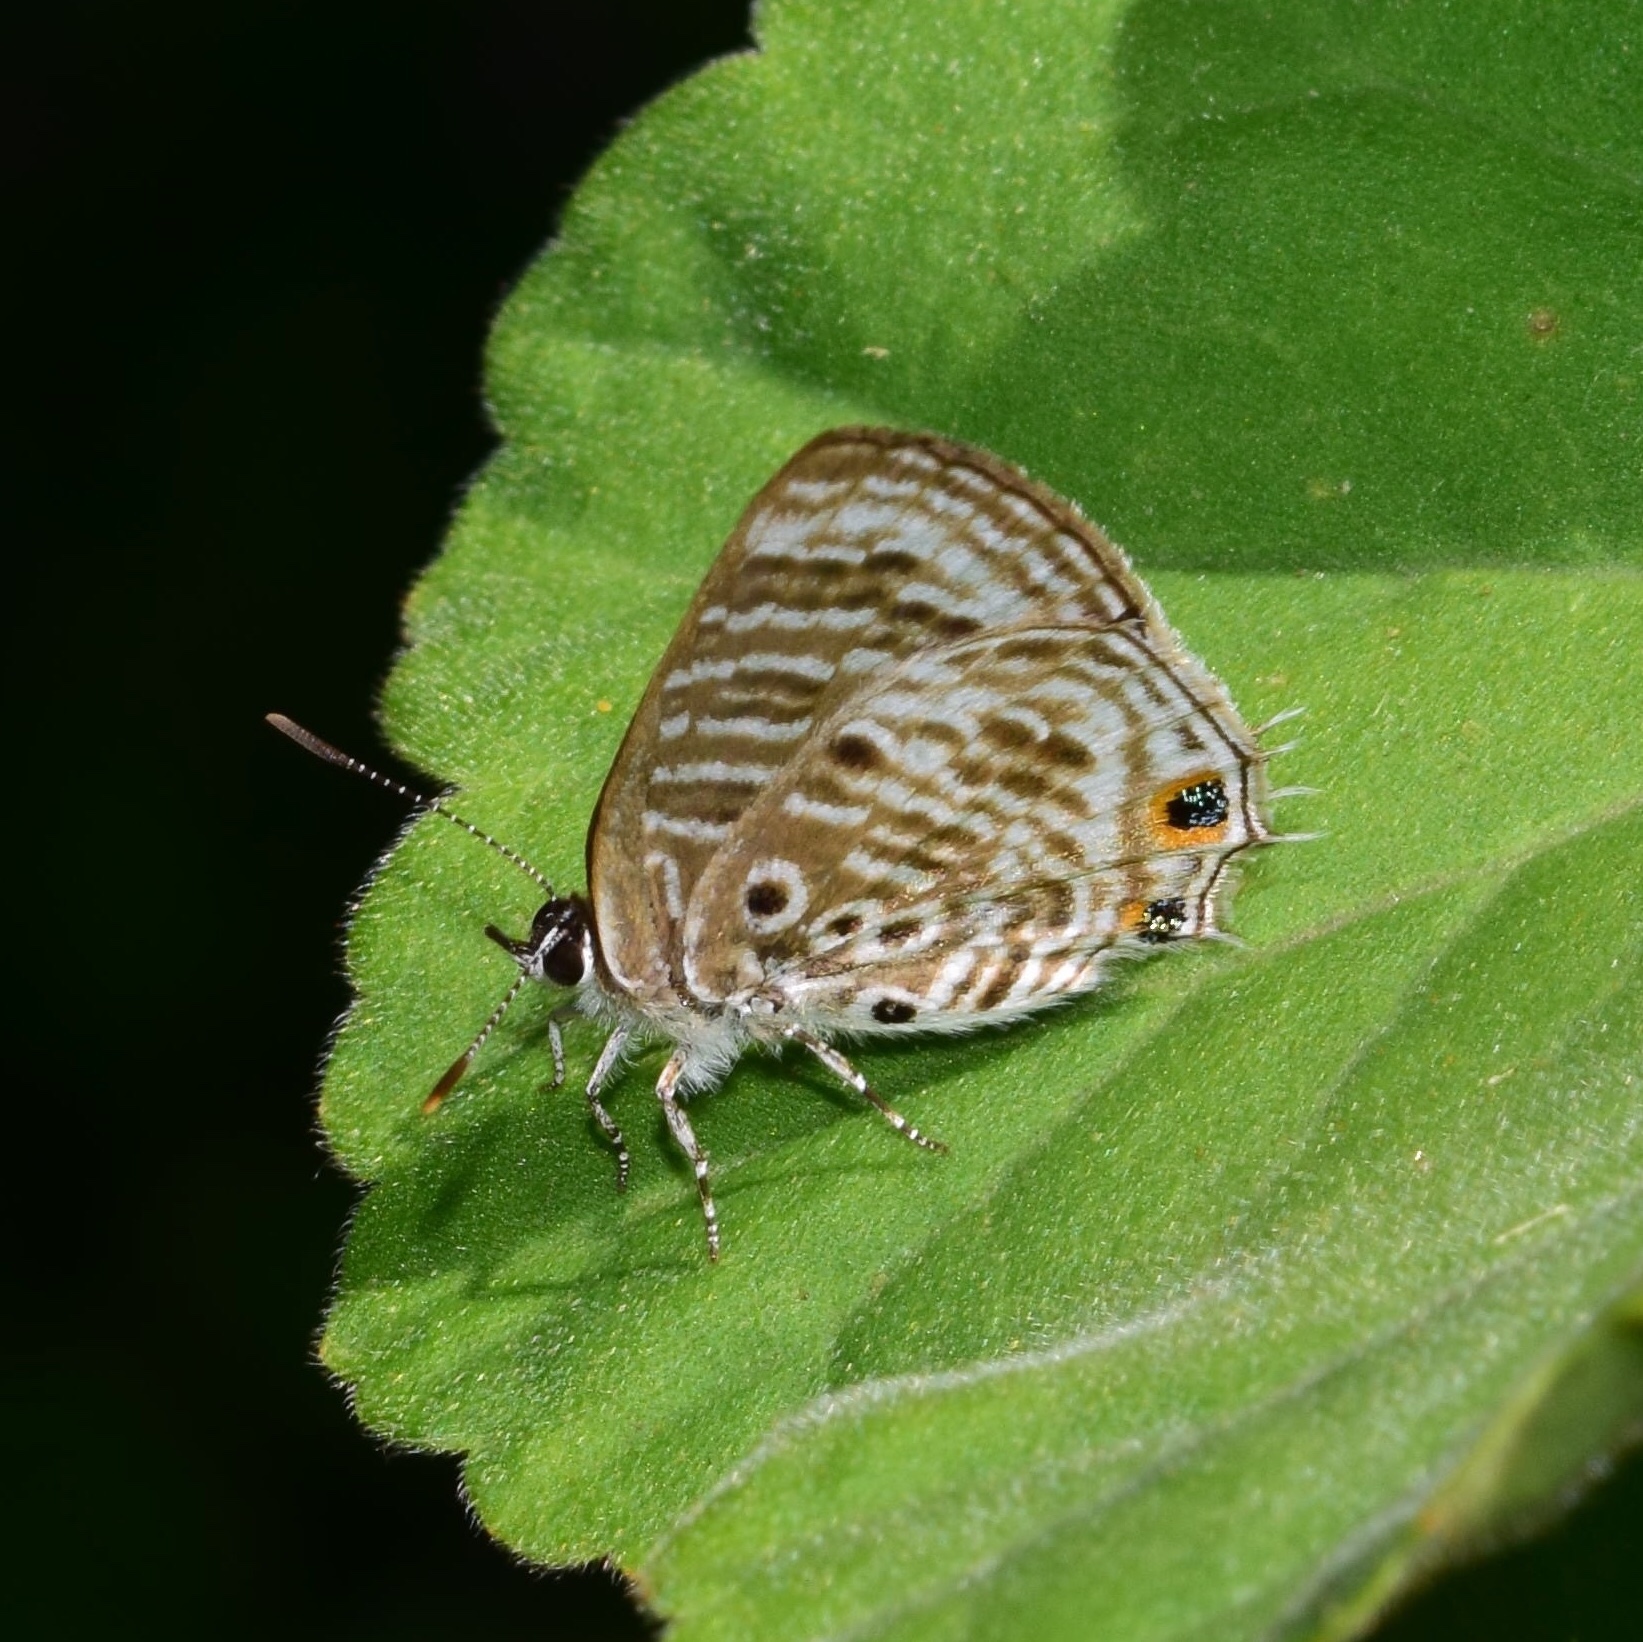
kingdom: Animalia
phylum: Arthropoda
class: Insecta
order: Lepidoptera
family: Lycaenidae
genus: Anthene
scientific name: Anthene larydas
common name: Forest hairtail
